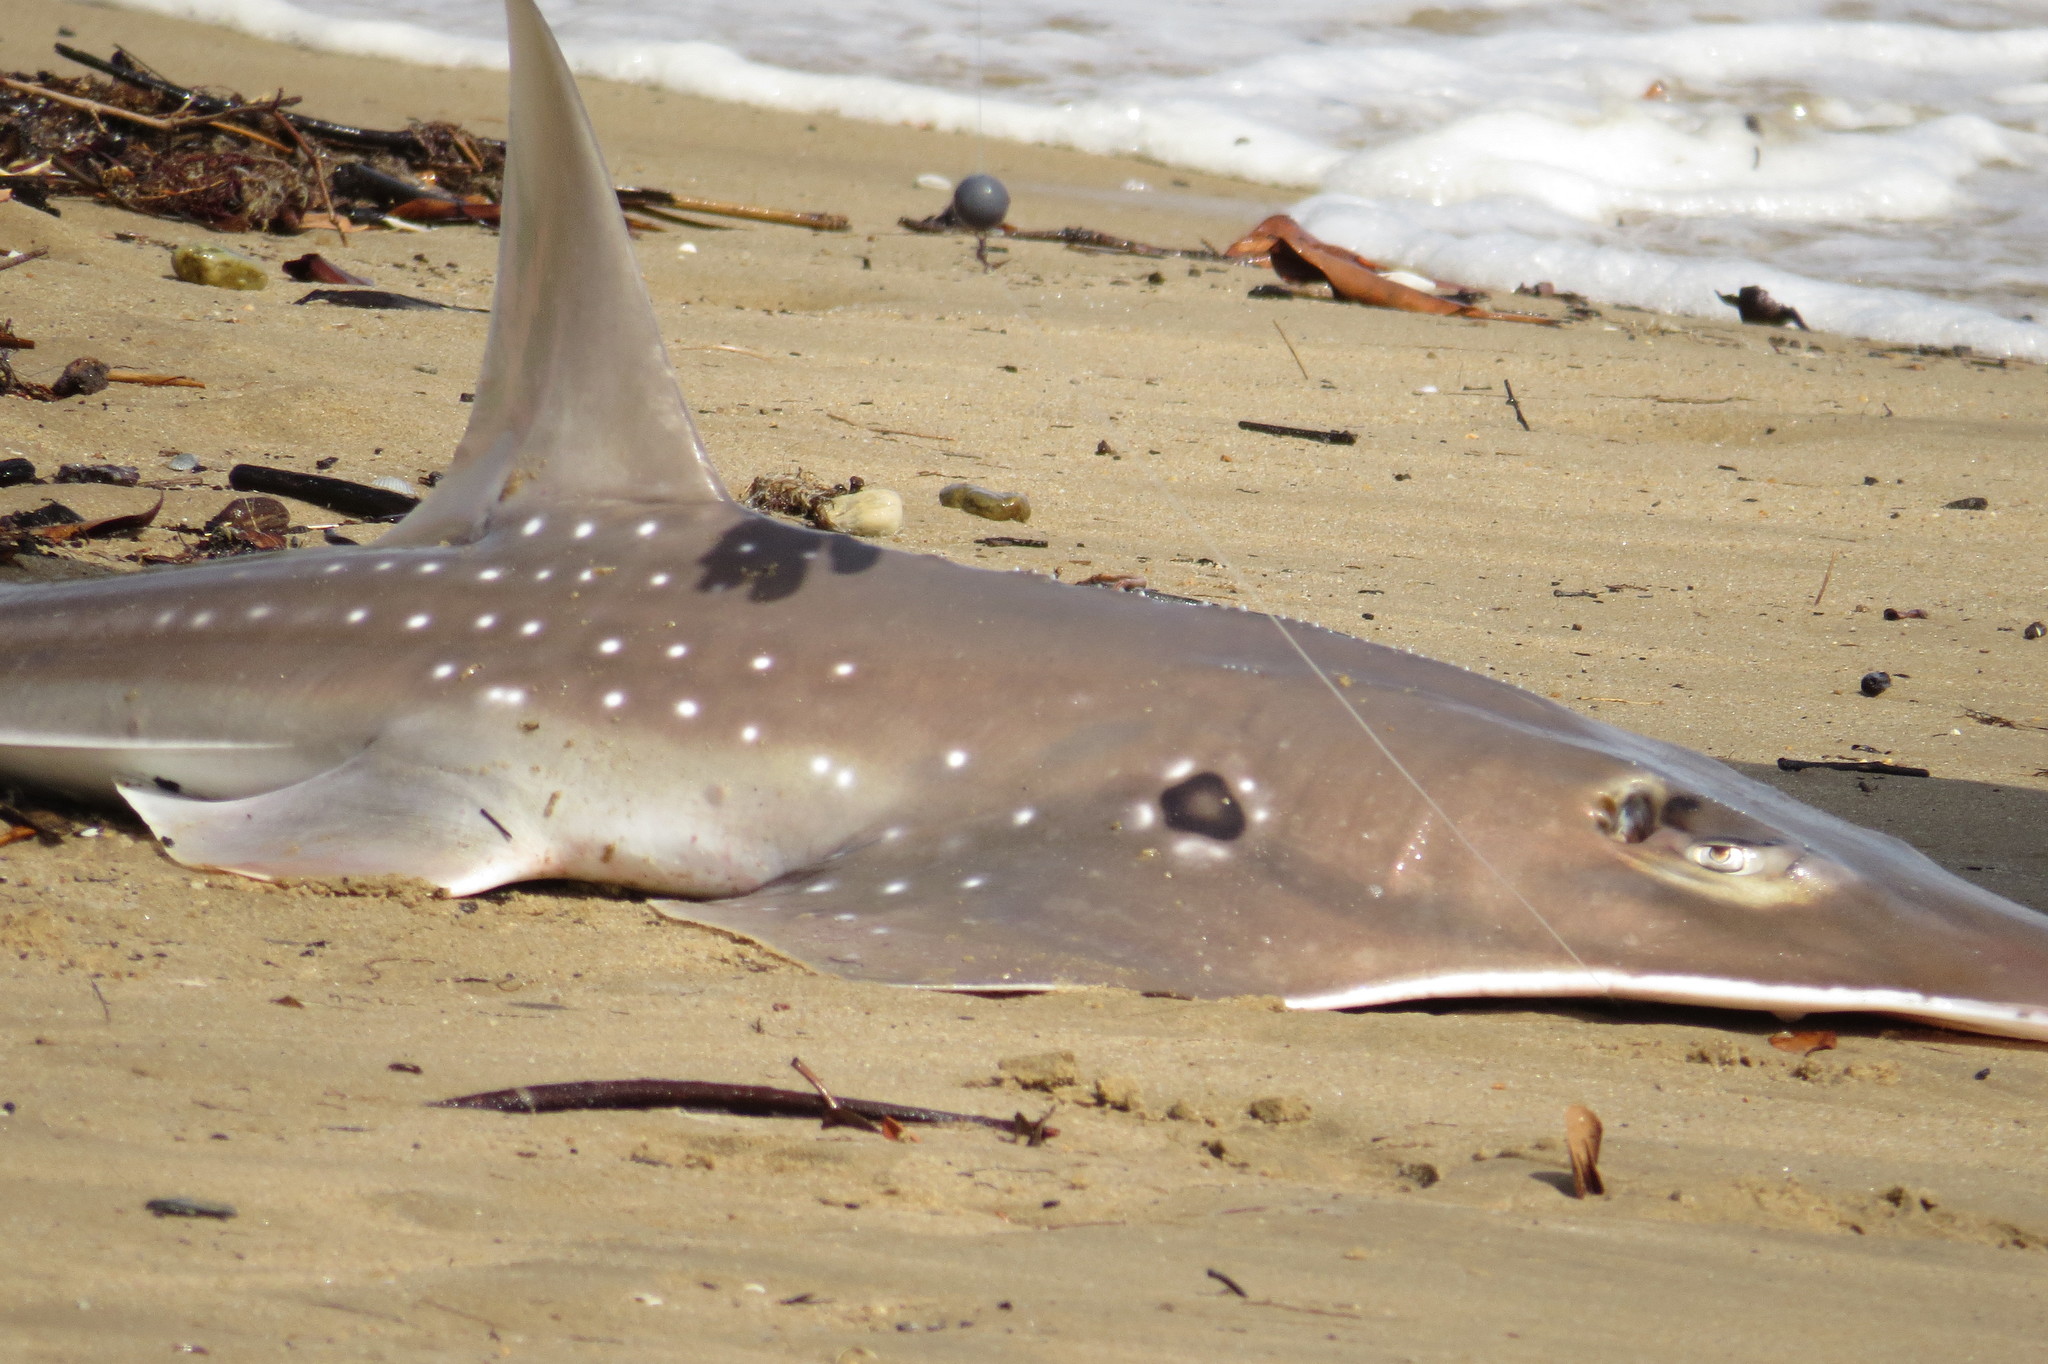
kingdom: Animalia
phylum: Chordata
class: Elasmobranchii
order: Rhinopristiformes
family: Rhinidae
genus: Rhynchobatus
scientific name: Rhynchobatus palpebratus
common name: Eyebrow wedgefish
